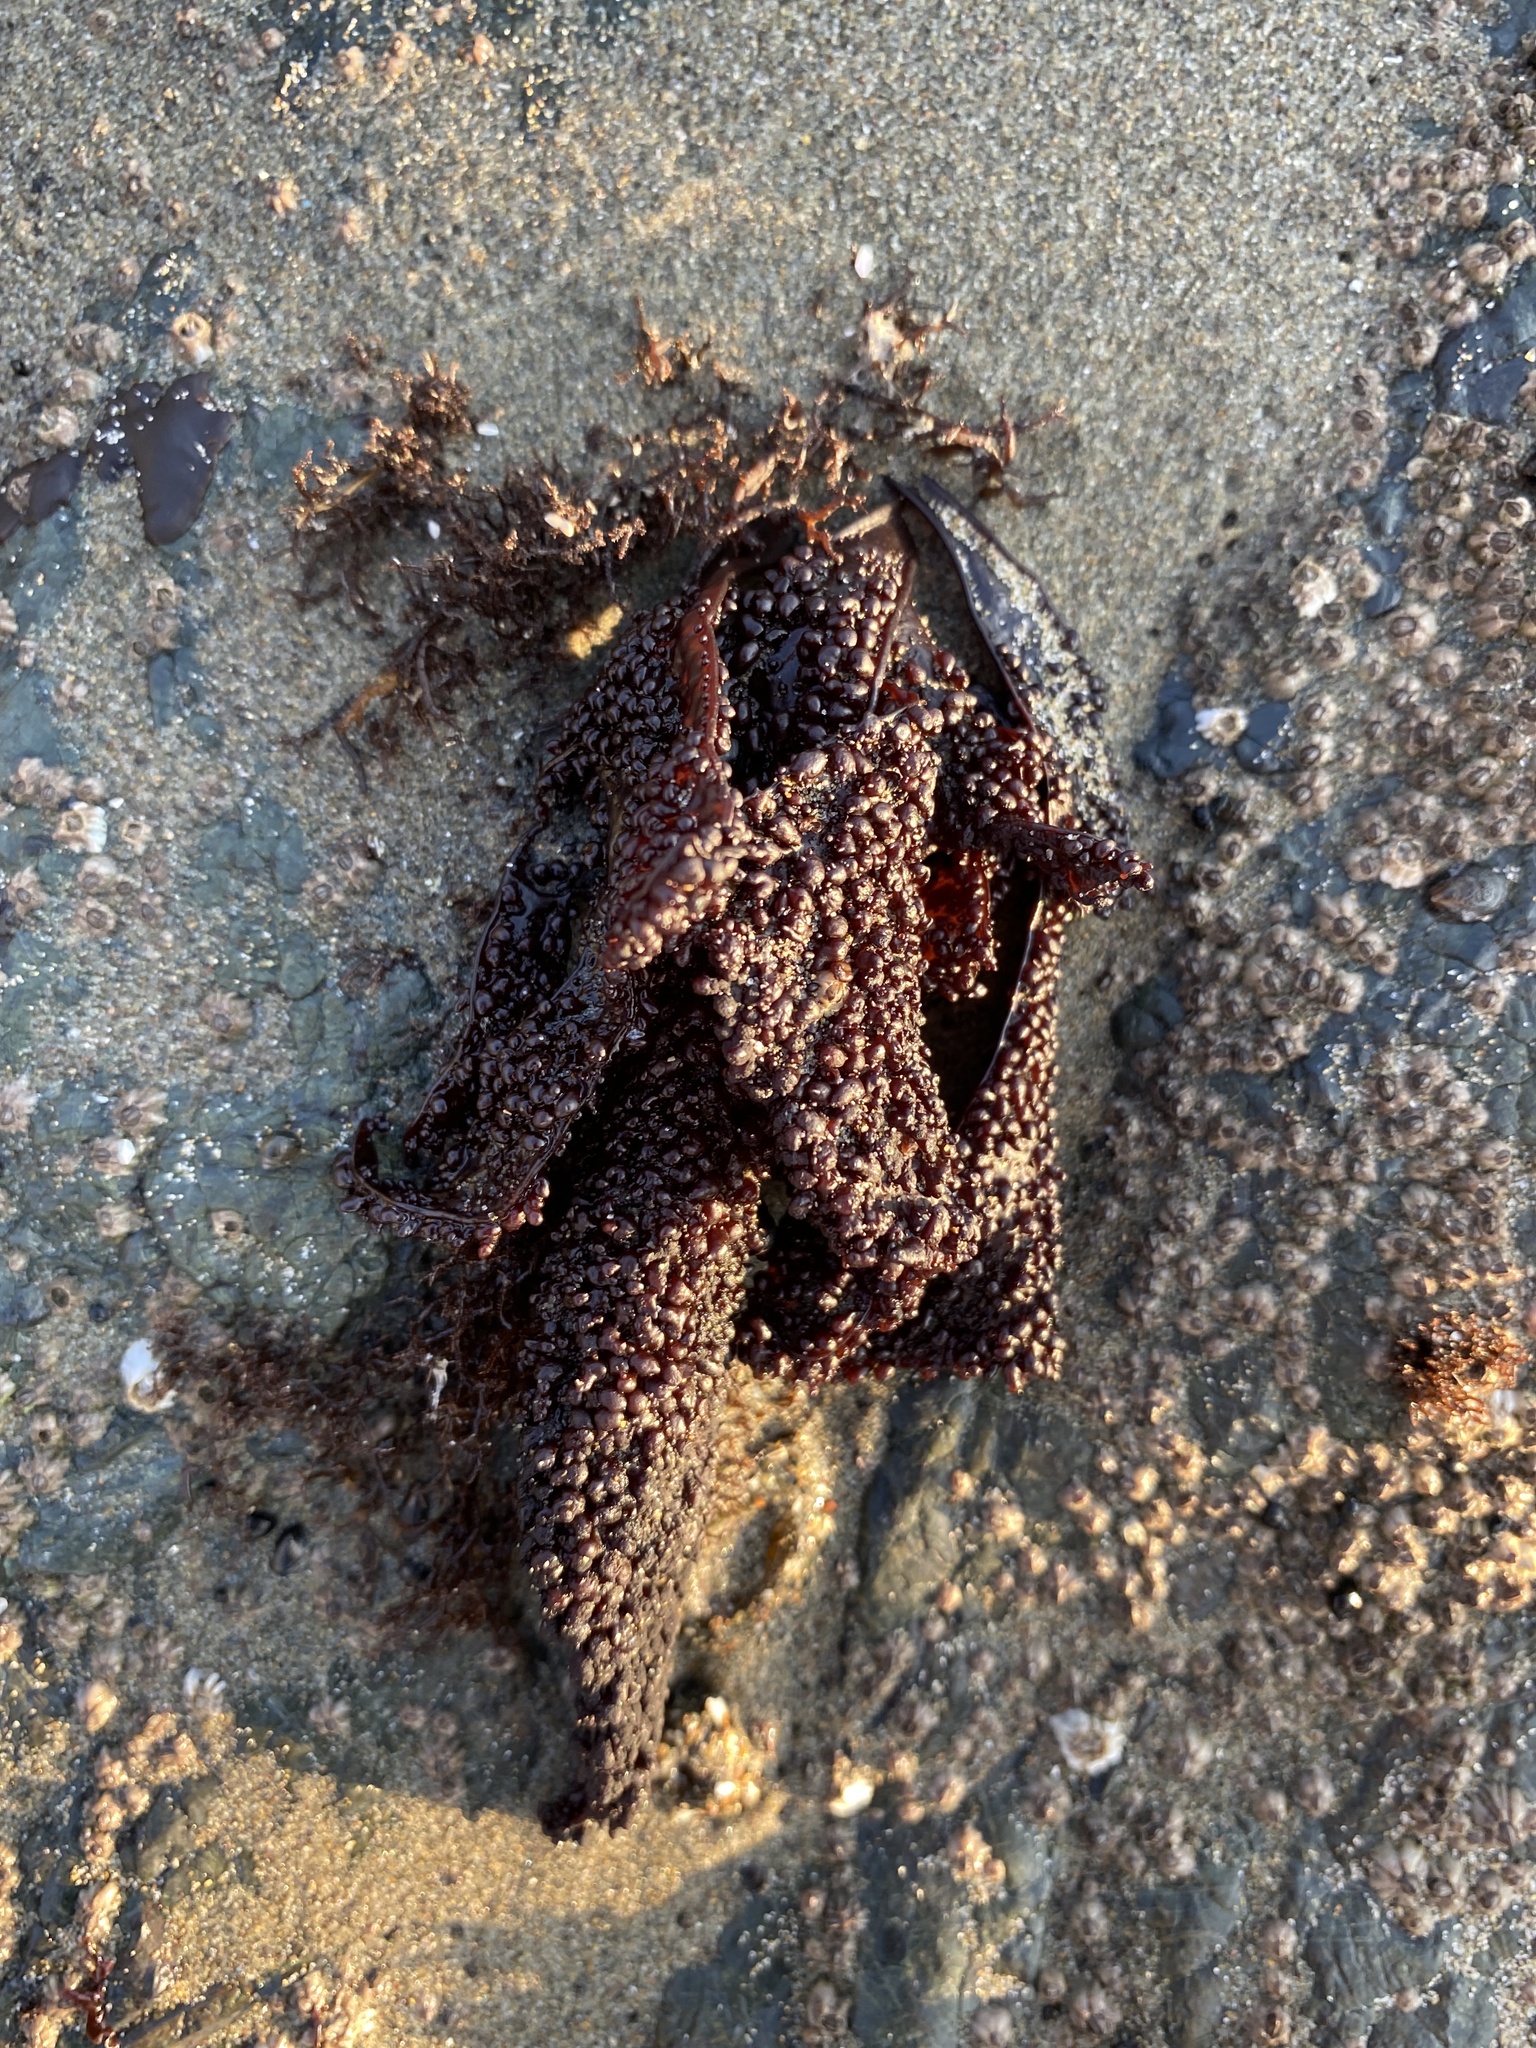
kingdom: Plantae
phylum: Rhodophyta
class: Florideophyceae
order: Gigartinales
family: Phyllophoraceae
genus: Mastocarpus
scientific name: Mastocarpus papillatus
